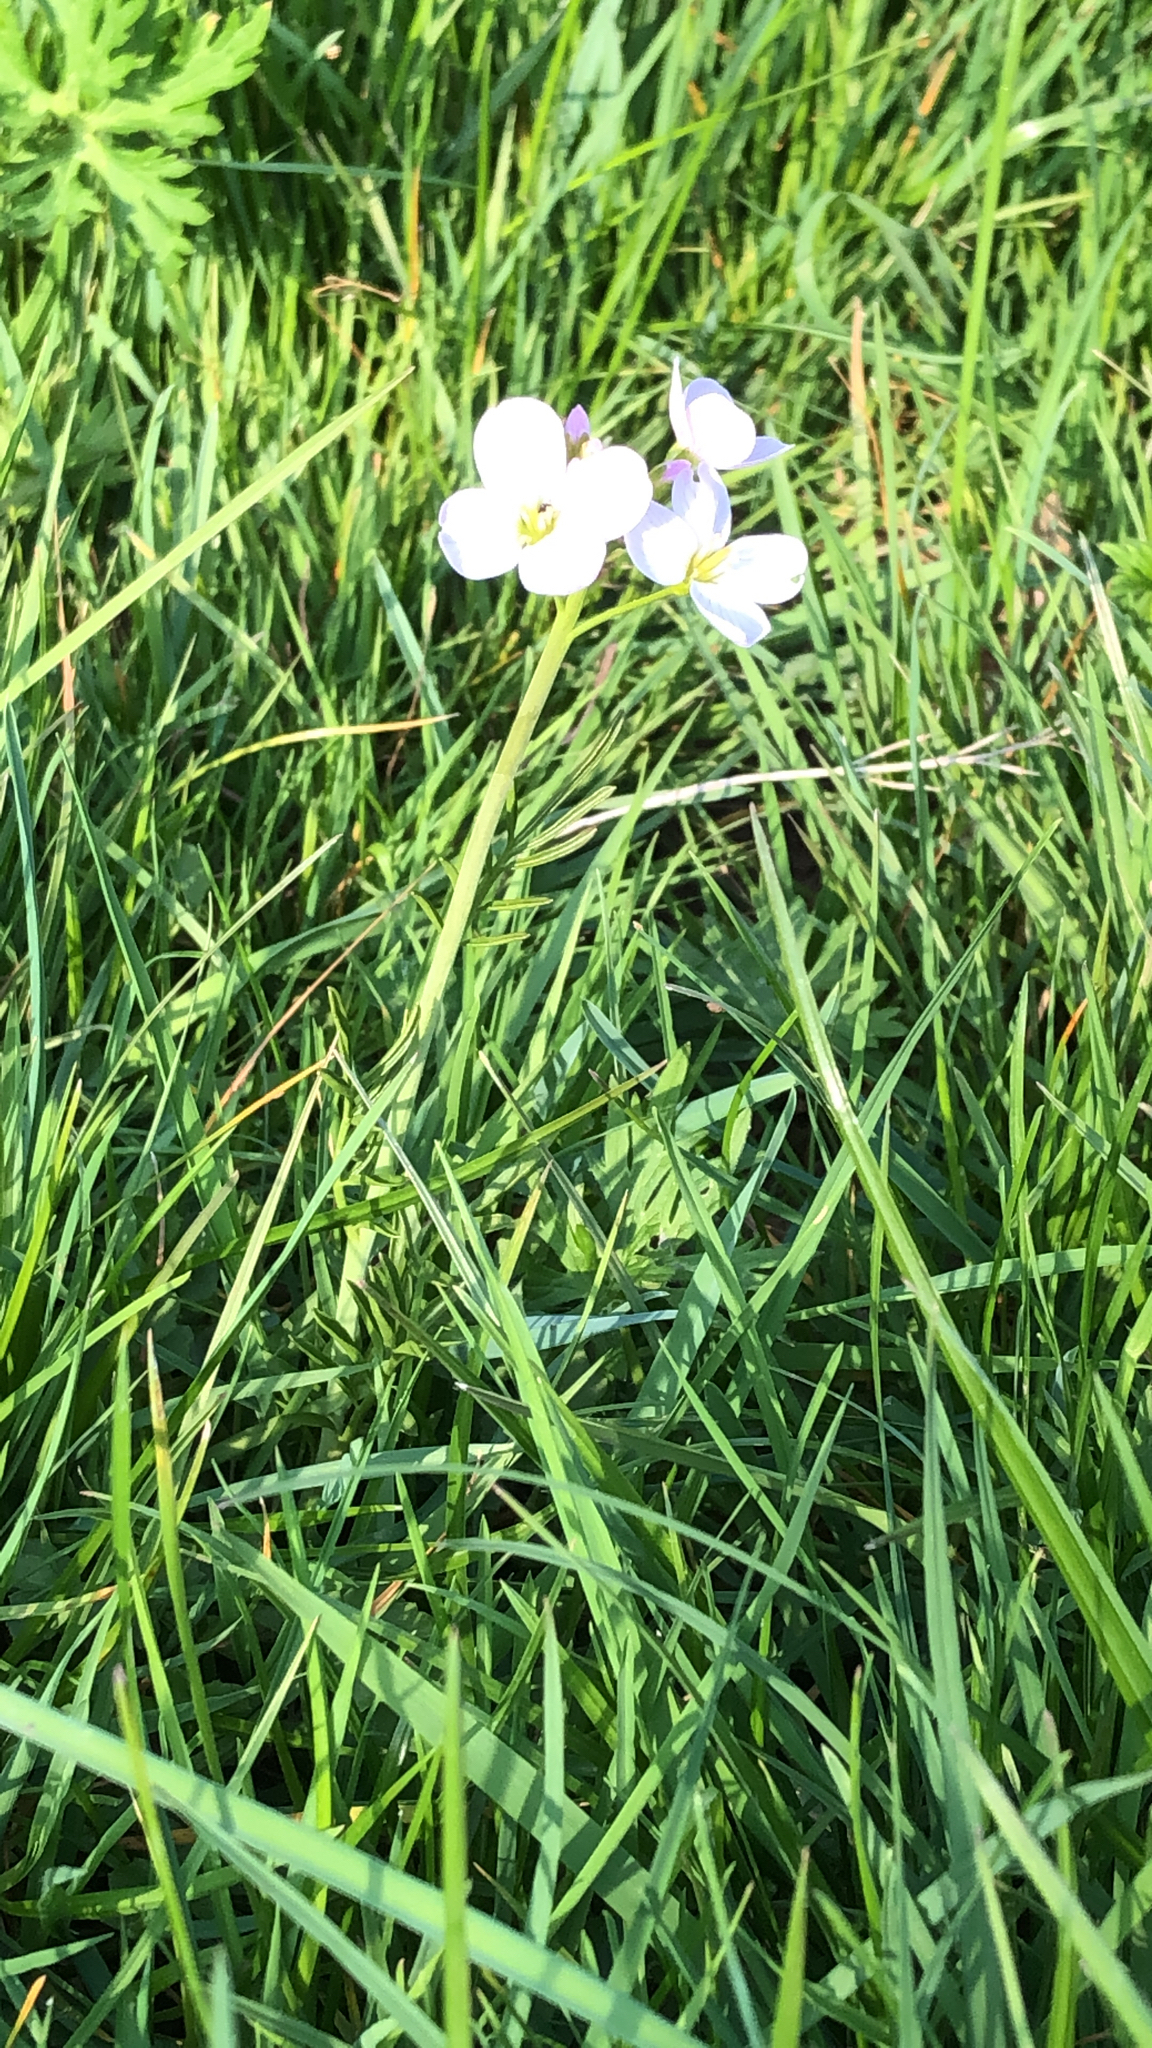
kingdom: Plantae
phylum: Tracheophyta
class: Magnoliopsida
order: Brassicales
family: Brassicaceae
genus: Cardamine
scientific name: Cardamine pratensis
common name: Cuckoo flower
